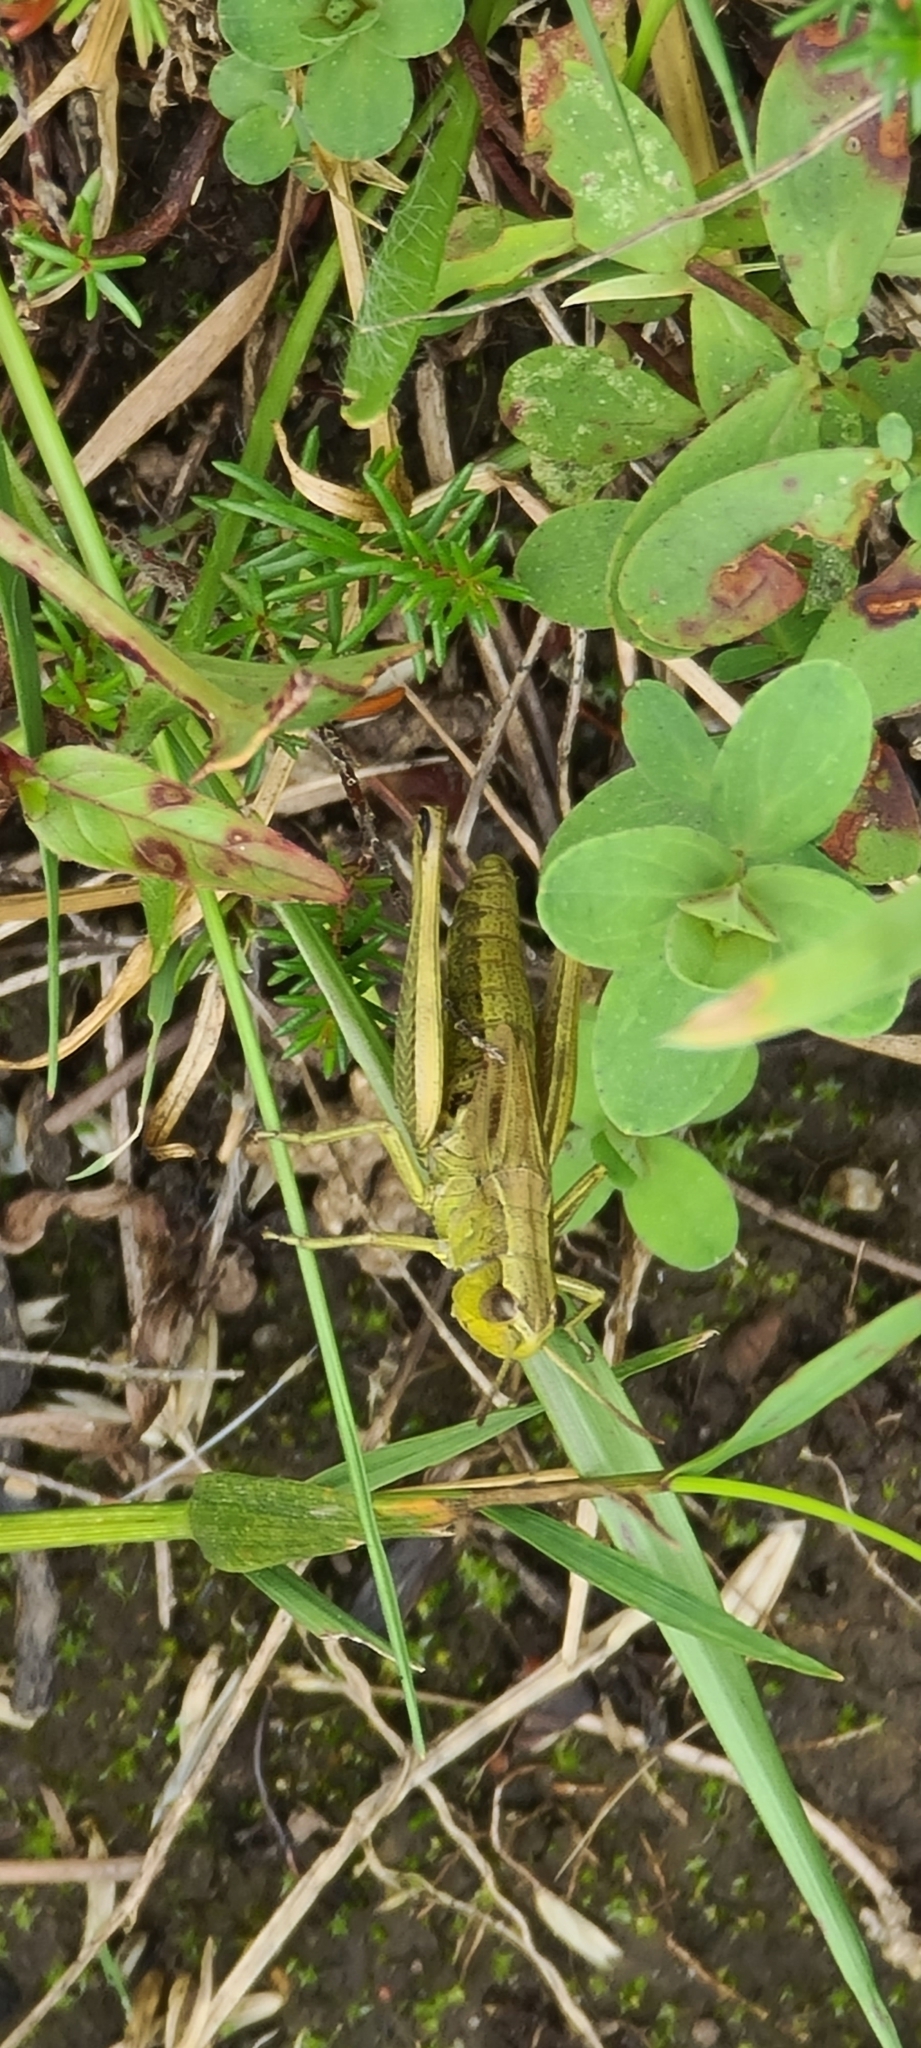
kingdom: Animalia
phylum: Arthropoda
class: Insecta
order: Orthoptera
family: Acrididae
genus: Pseudochorthippus
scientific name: Pseudochorthippus parallelus
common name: Meadow grasshopper
